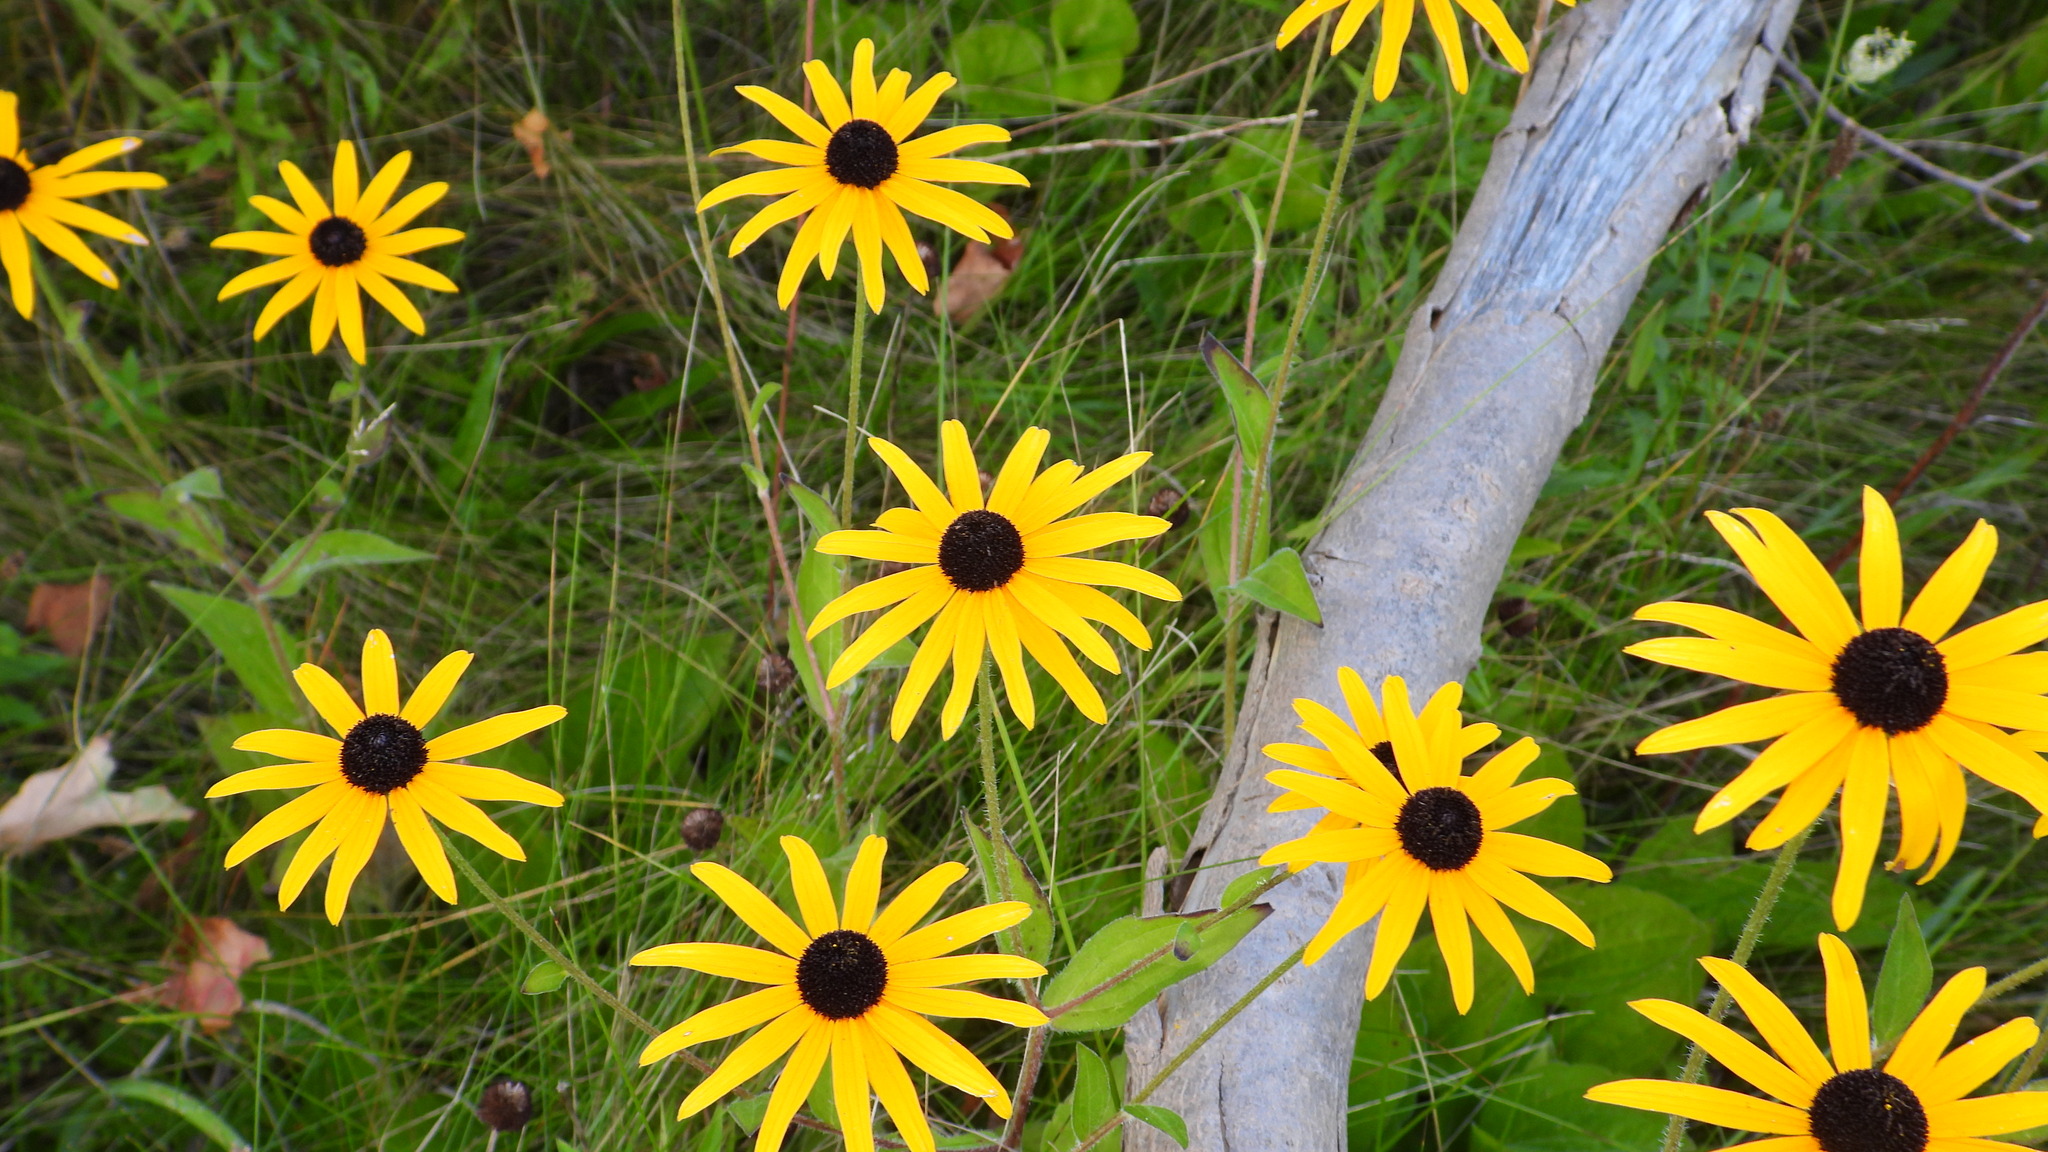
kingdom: Plantae
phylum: Tracheophyta
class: Magnoliopsida
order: Asterales
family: Asteraceae
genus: Rudbeckia
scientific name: Rudbeckia hirta
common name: Black-eyed-susan
